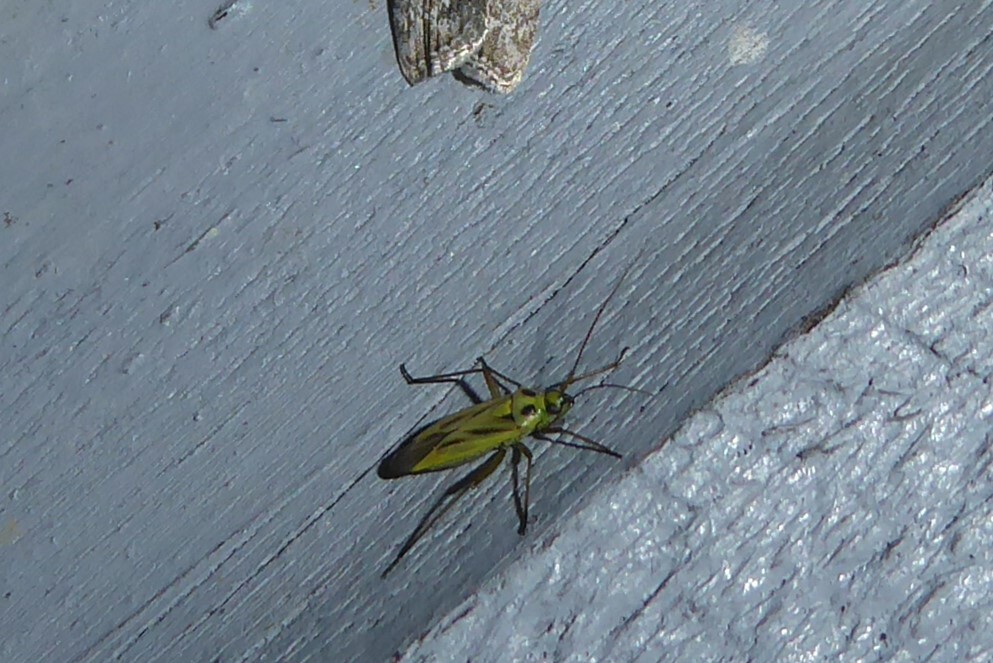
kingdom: Animalia
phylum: Arthropoda
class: Insecta
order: Hemiptera
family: Miridae
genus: Stenotus
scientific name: Stenotus binotatus
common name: Plant bug
